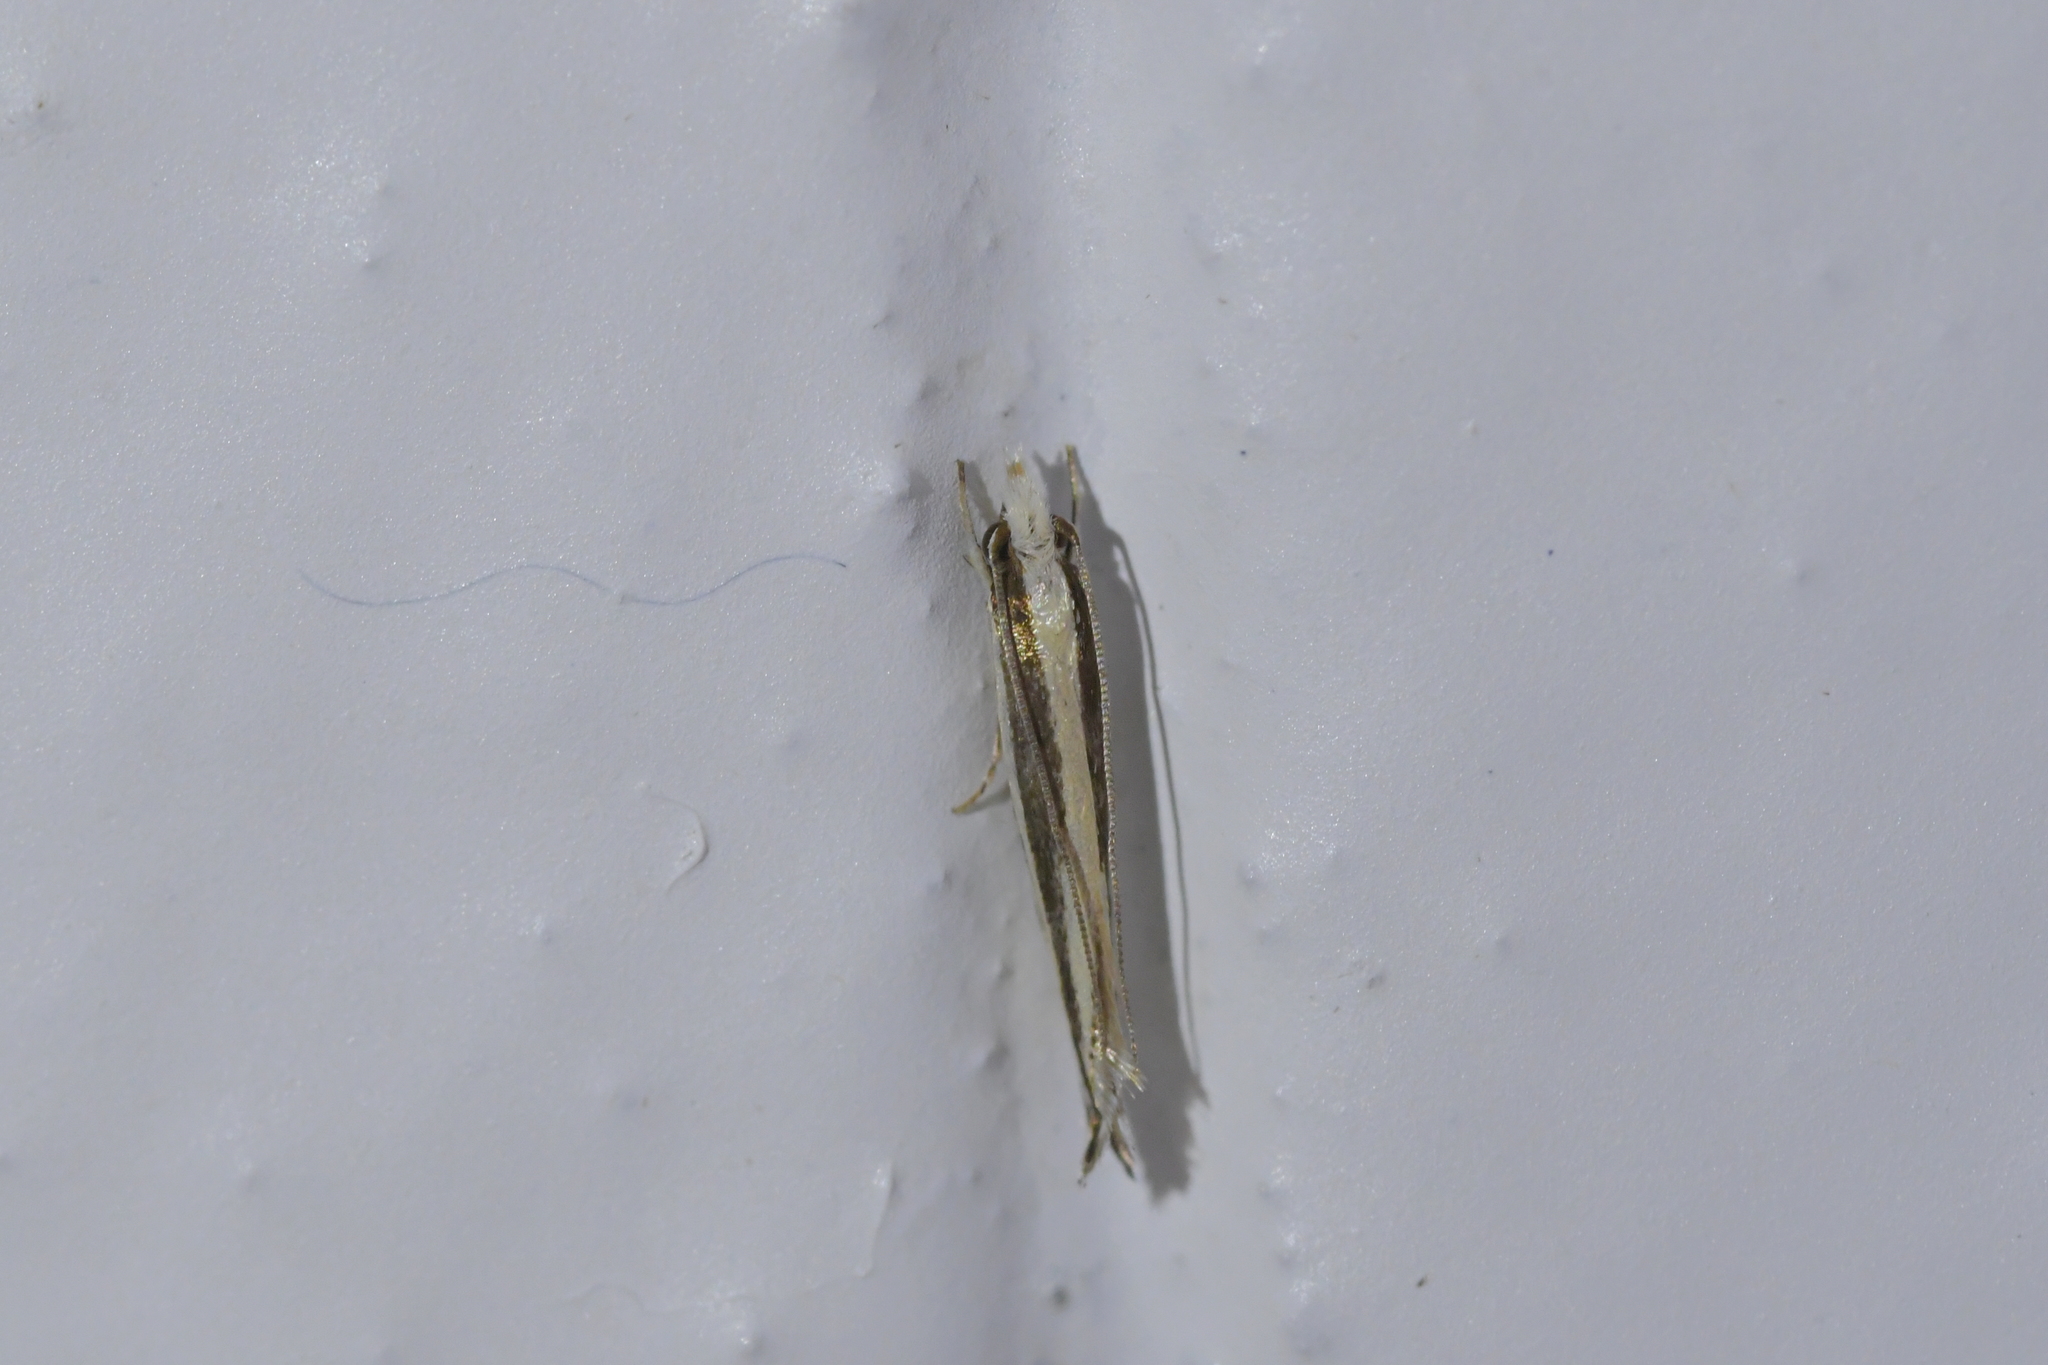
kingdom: Animalia
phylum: Arthropoda
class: Insecta
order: Lepidoptera
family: Tineidae
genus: Erechthias
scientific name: Erechthias stilbella
